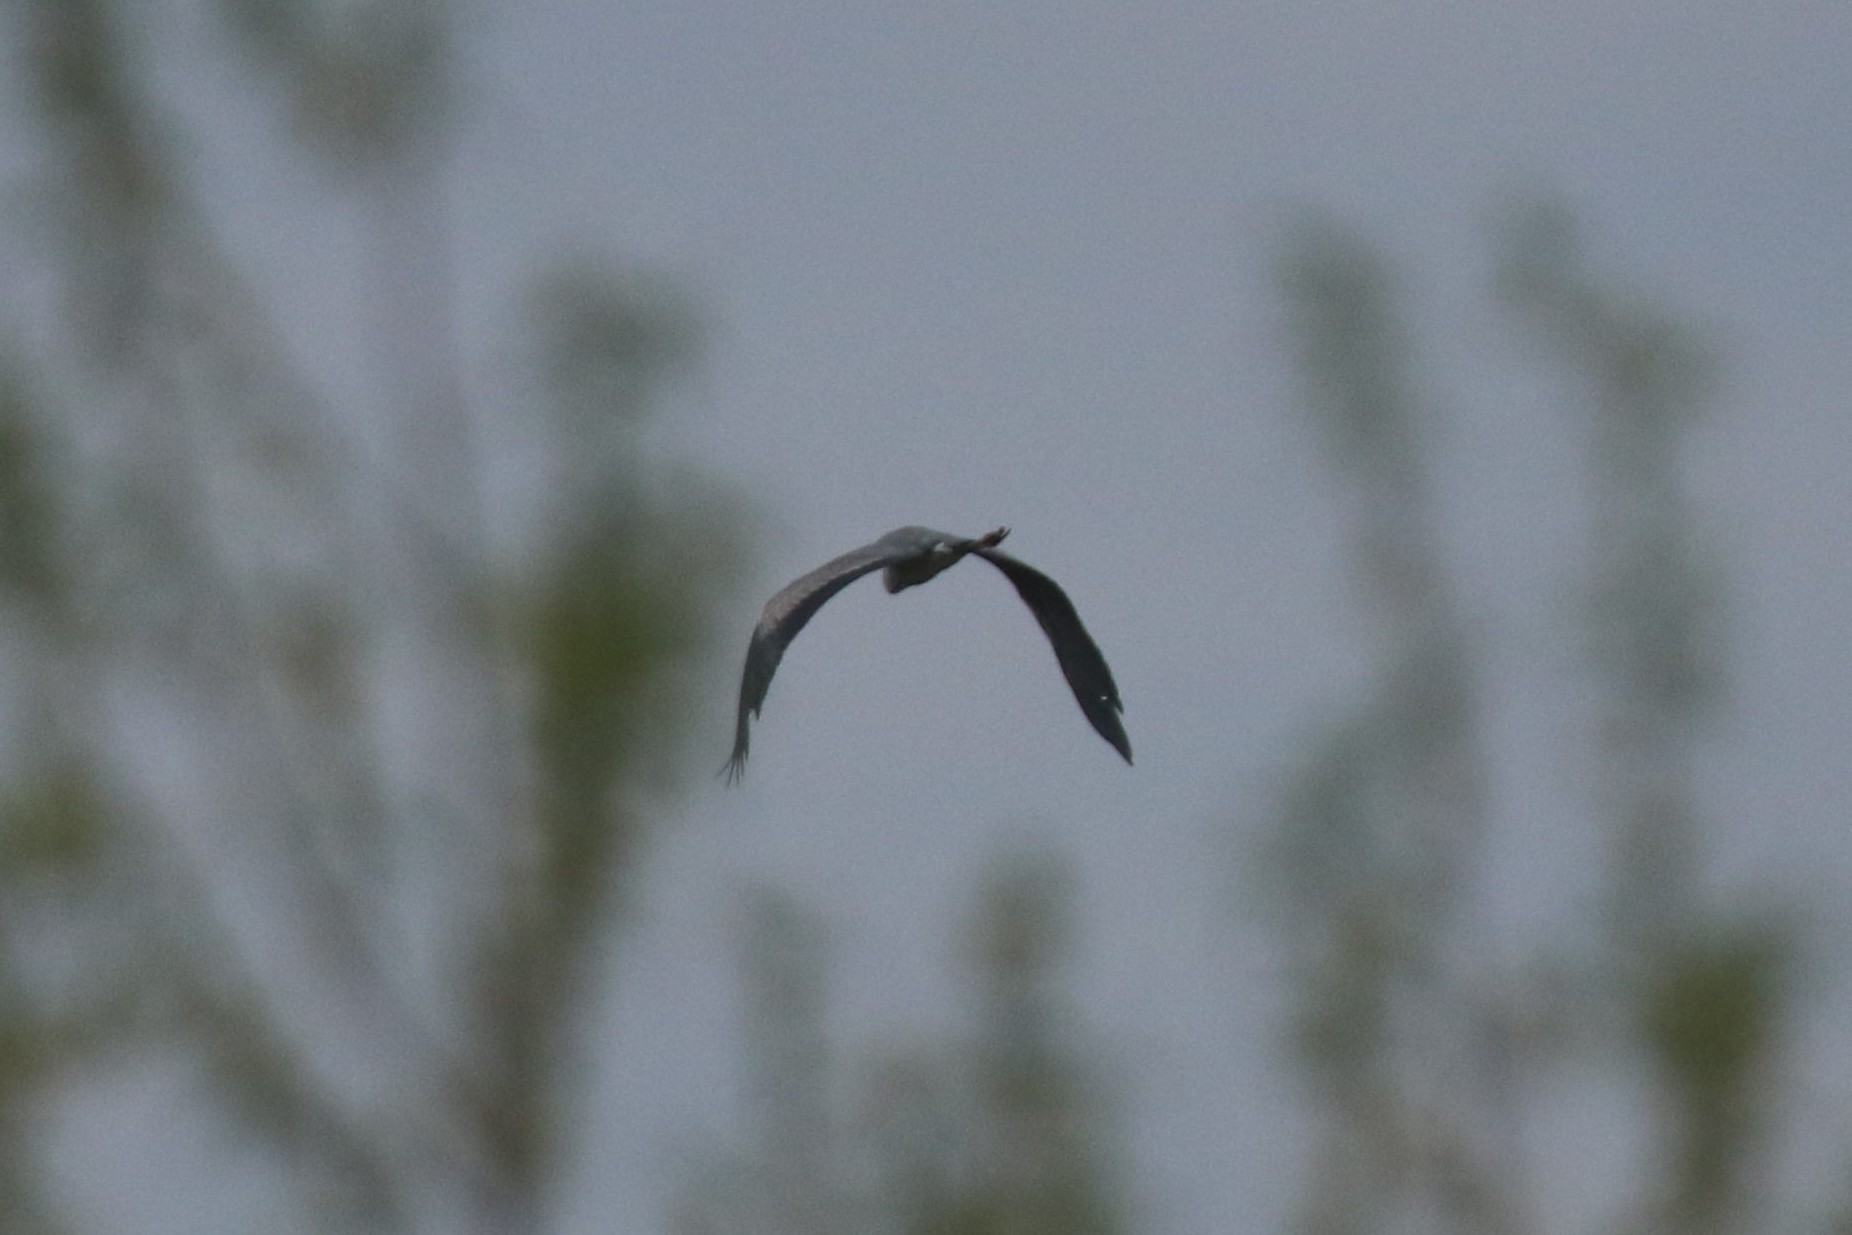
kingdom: Animalia
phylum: Chordata
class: Aves
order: Pelecaniformes
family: Ardeidae
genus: Ardea
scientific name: Ardea cinerea
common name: Grey heron
